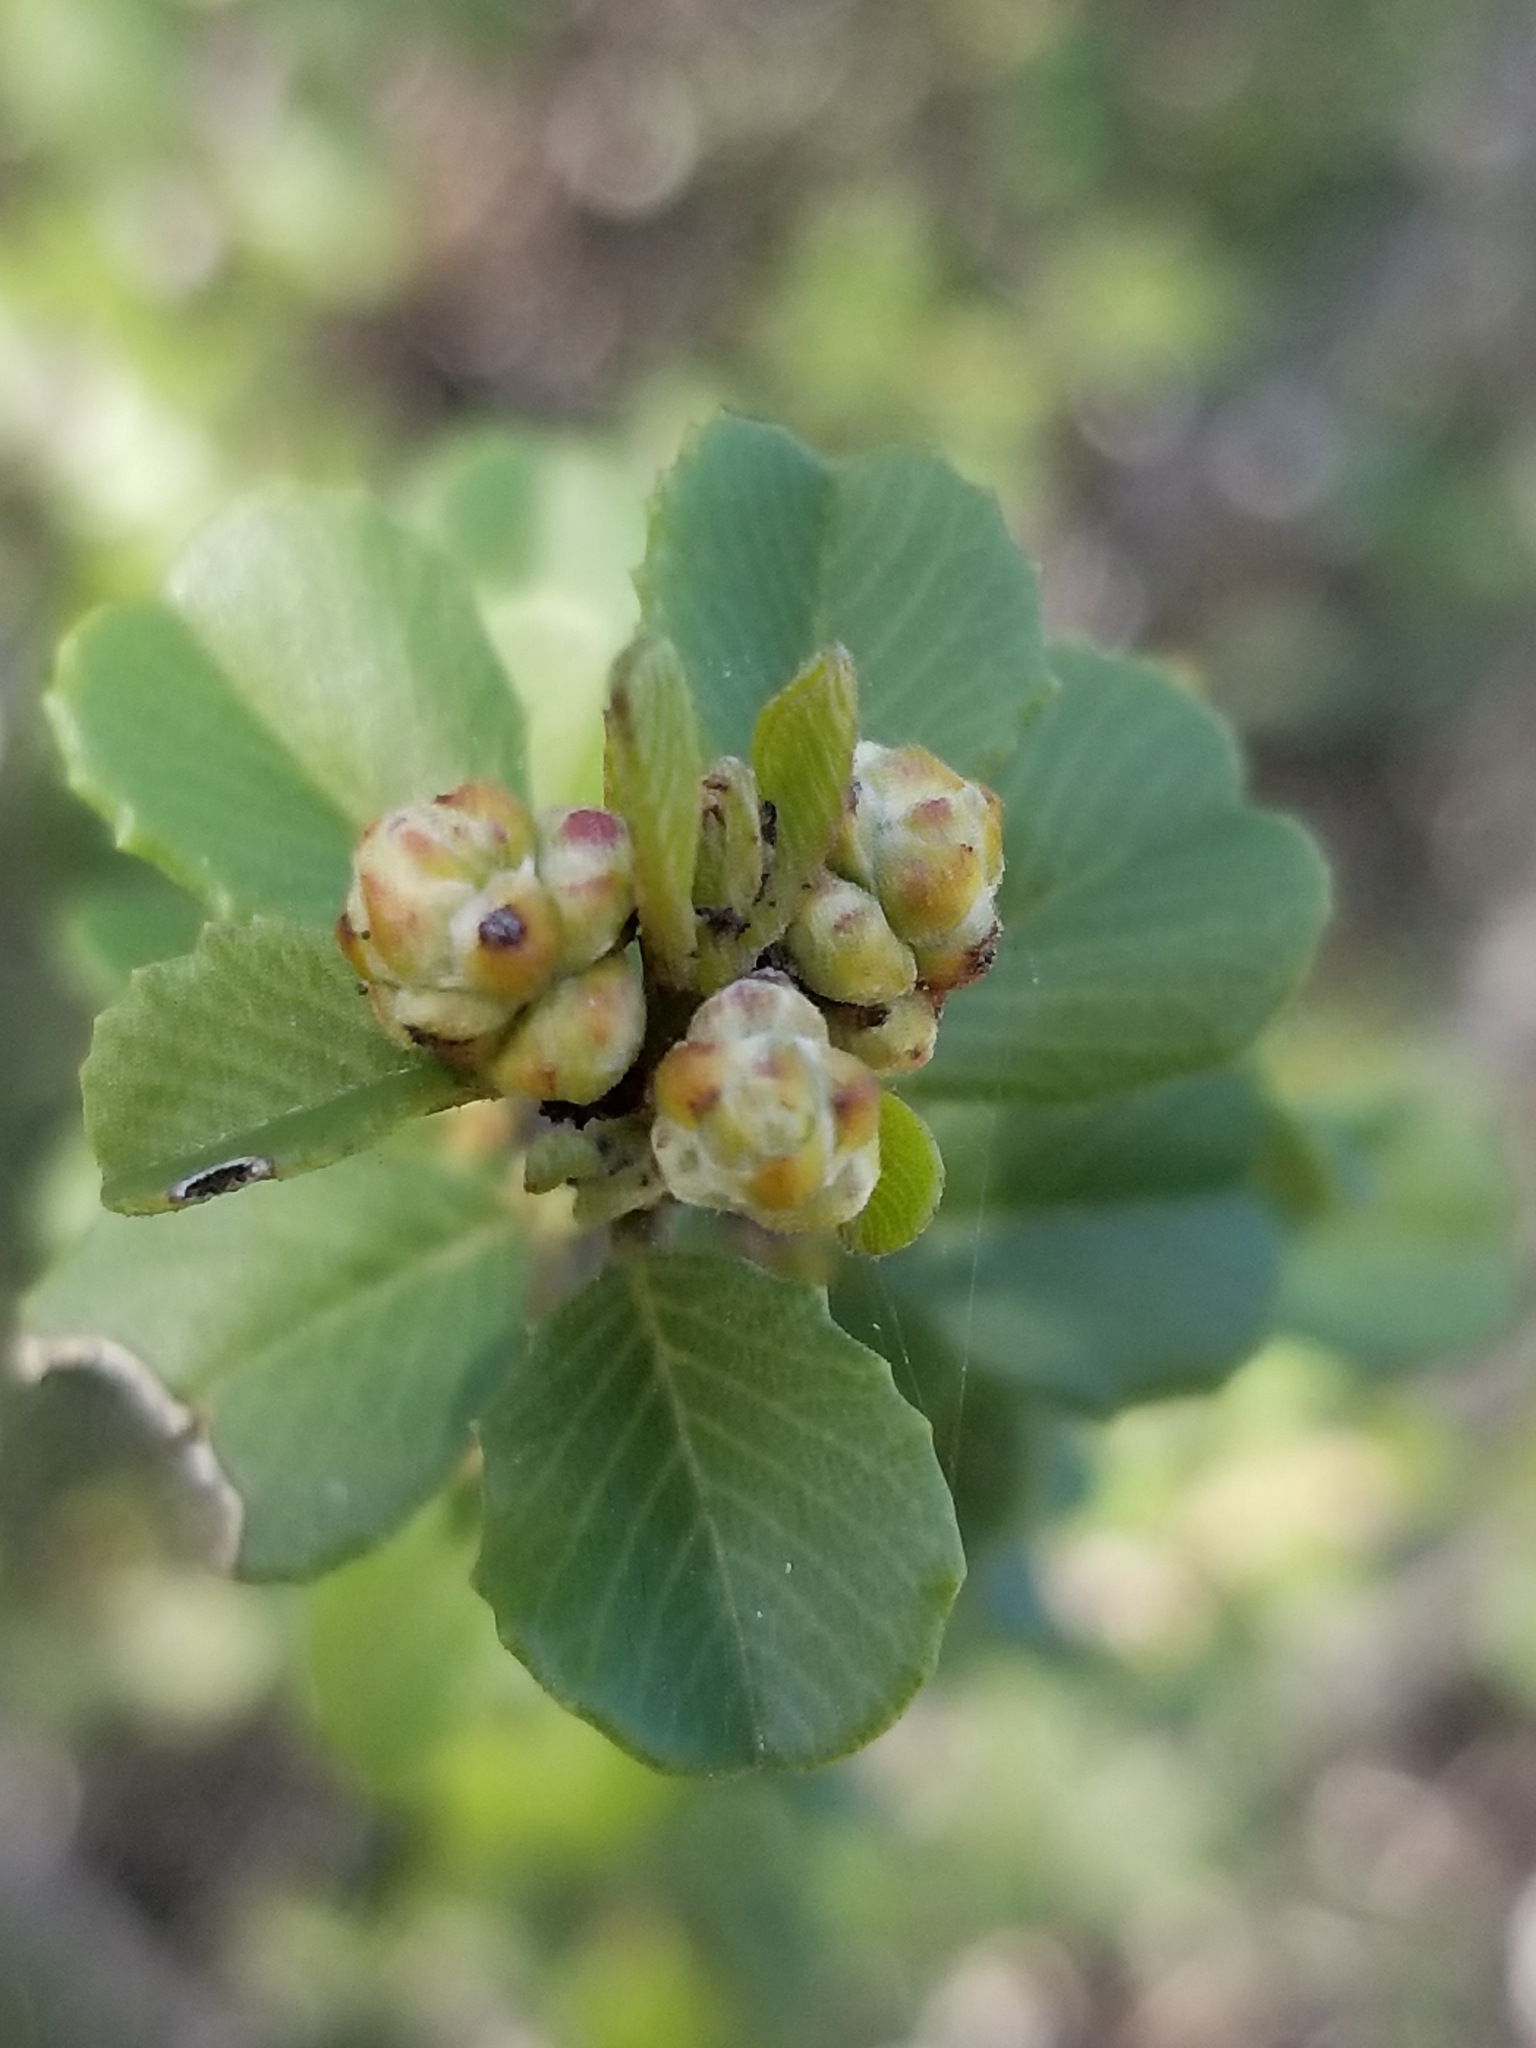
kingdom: Plantae
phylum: Tracheophyta
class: Magnoliopsida
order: Rosales
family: Rhamnaceae
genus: Ceanothus
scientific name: Ceanothus verrucosus
